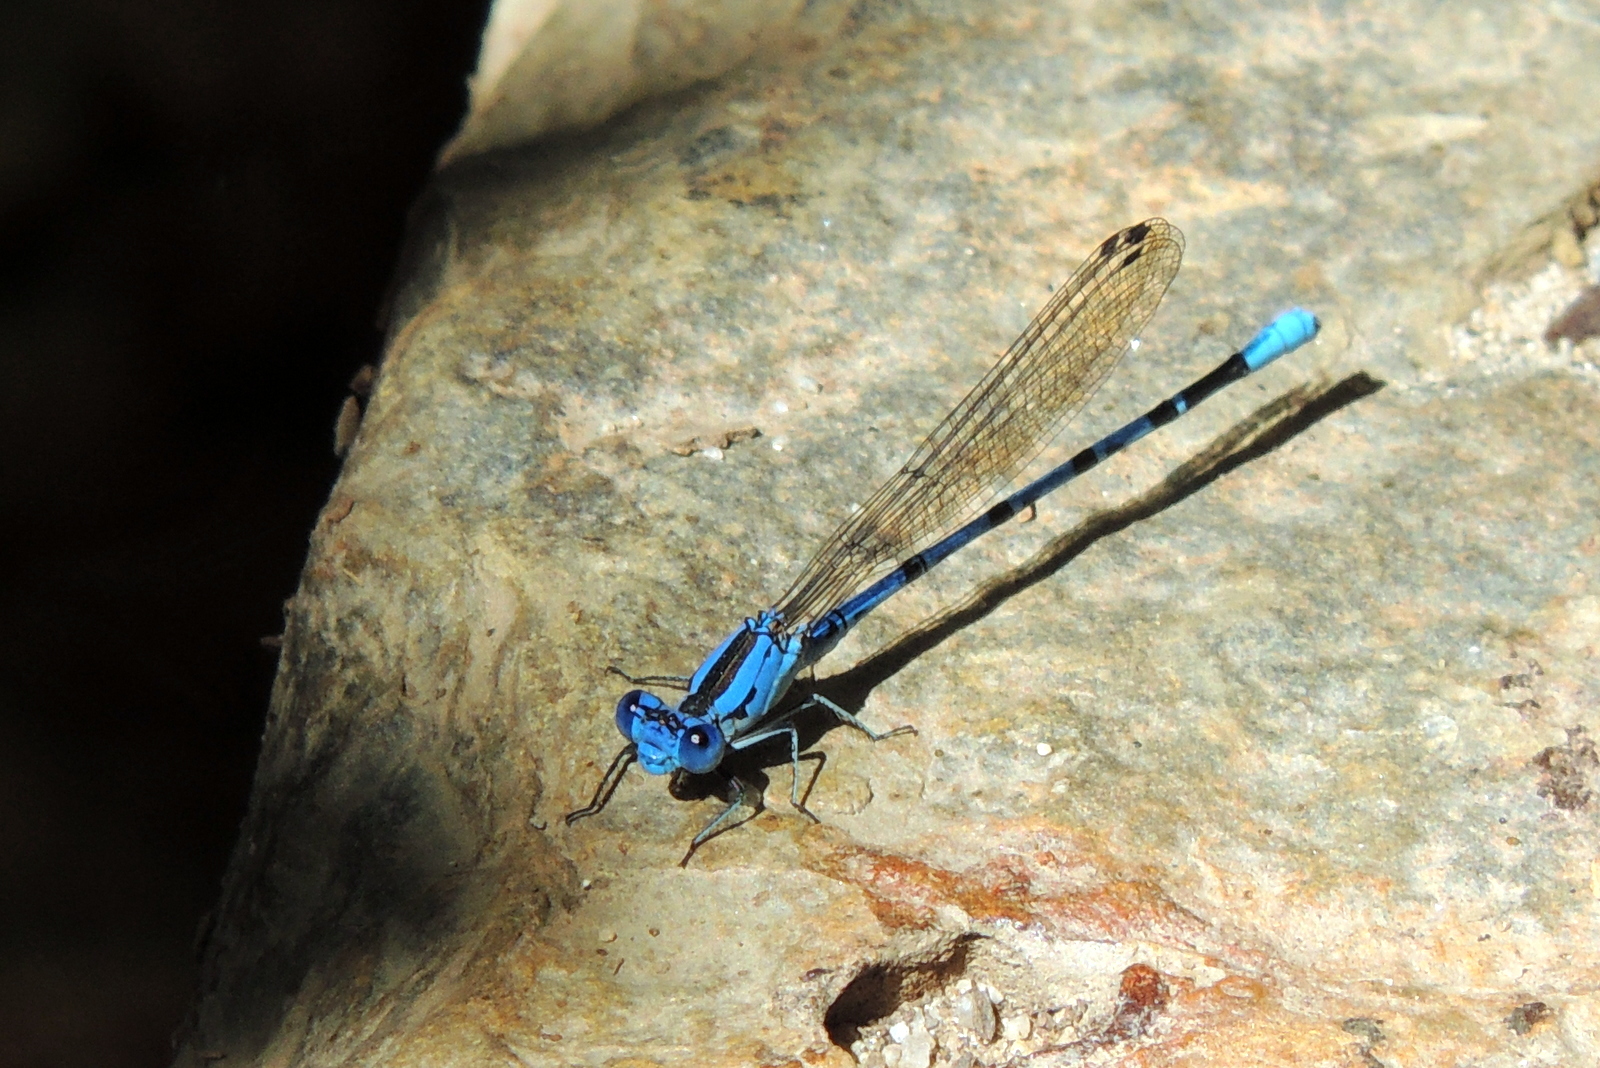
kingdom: Animalia
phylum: Arthropoda
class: Insecta
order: Odonata
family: Coenagrionidae
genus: Argia
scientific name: Argia vivida
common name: Vivid dancer
